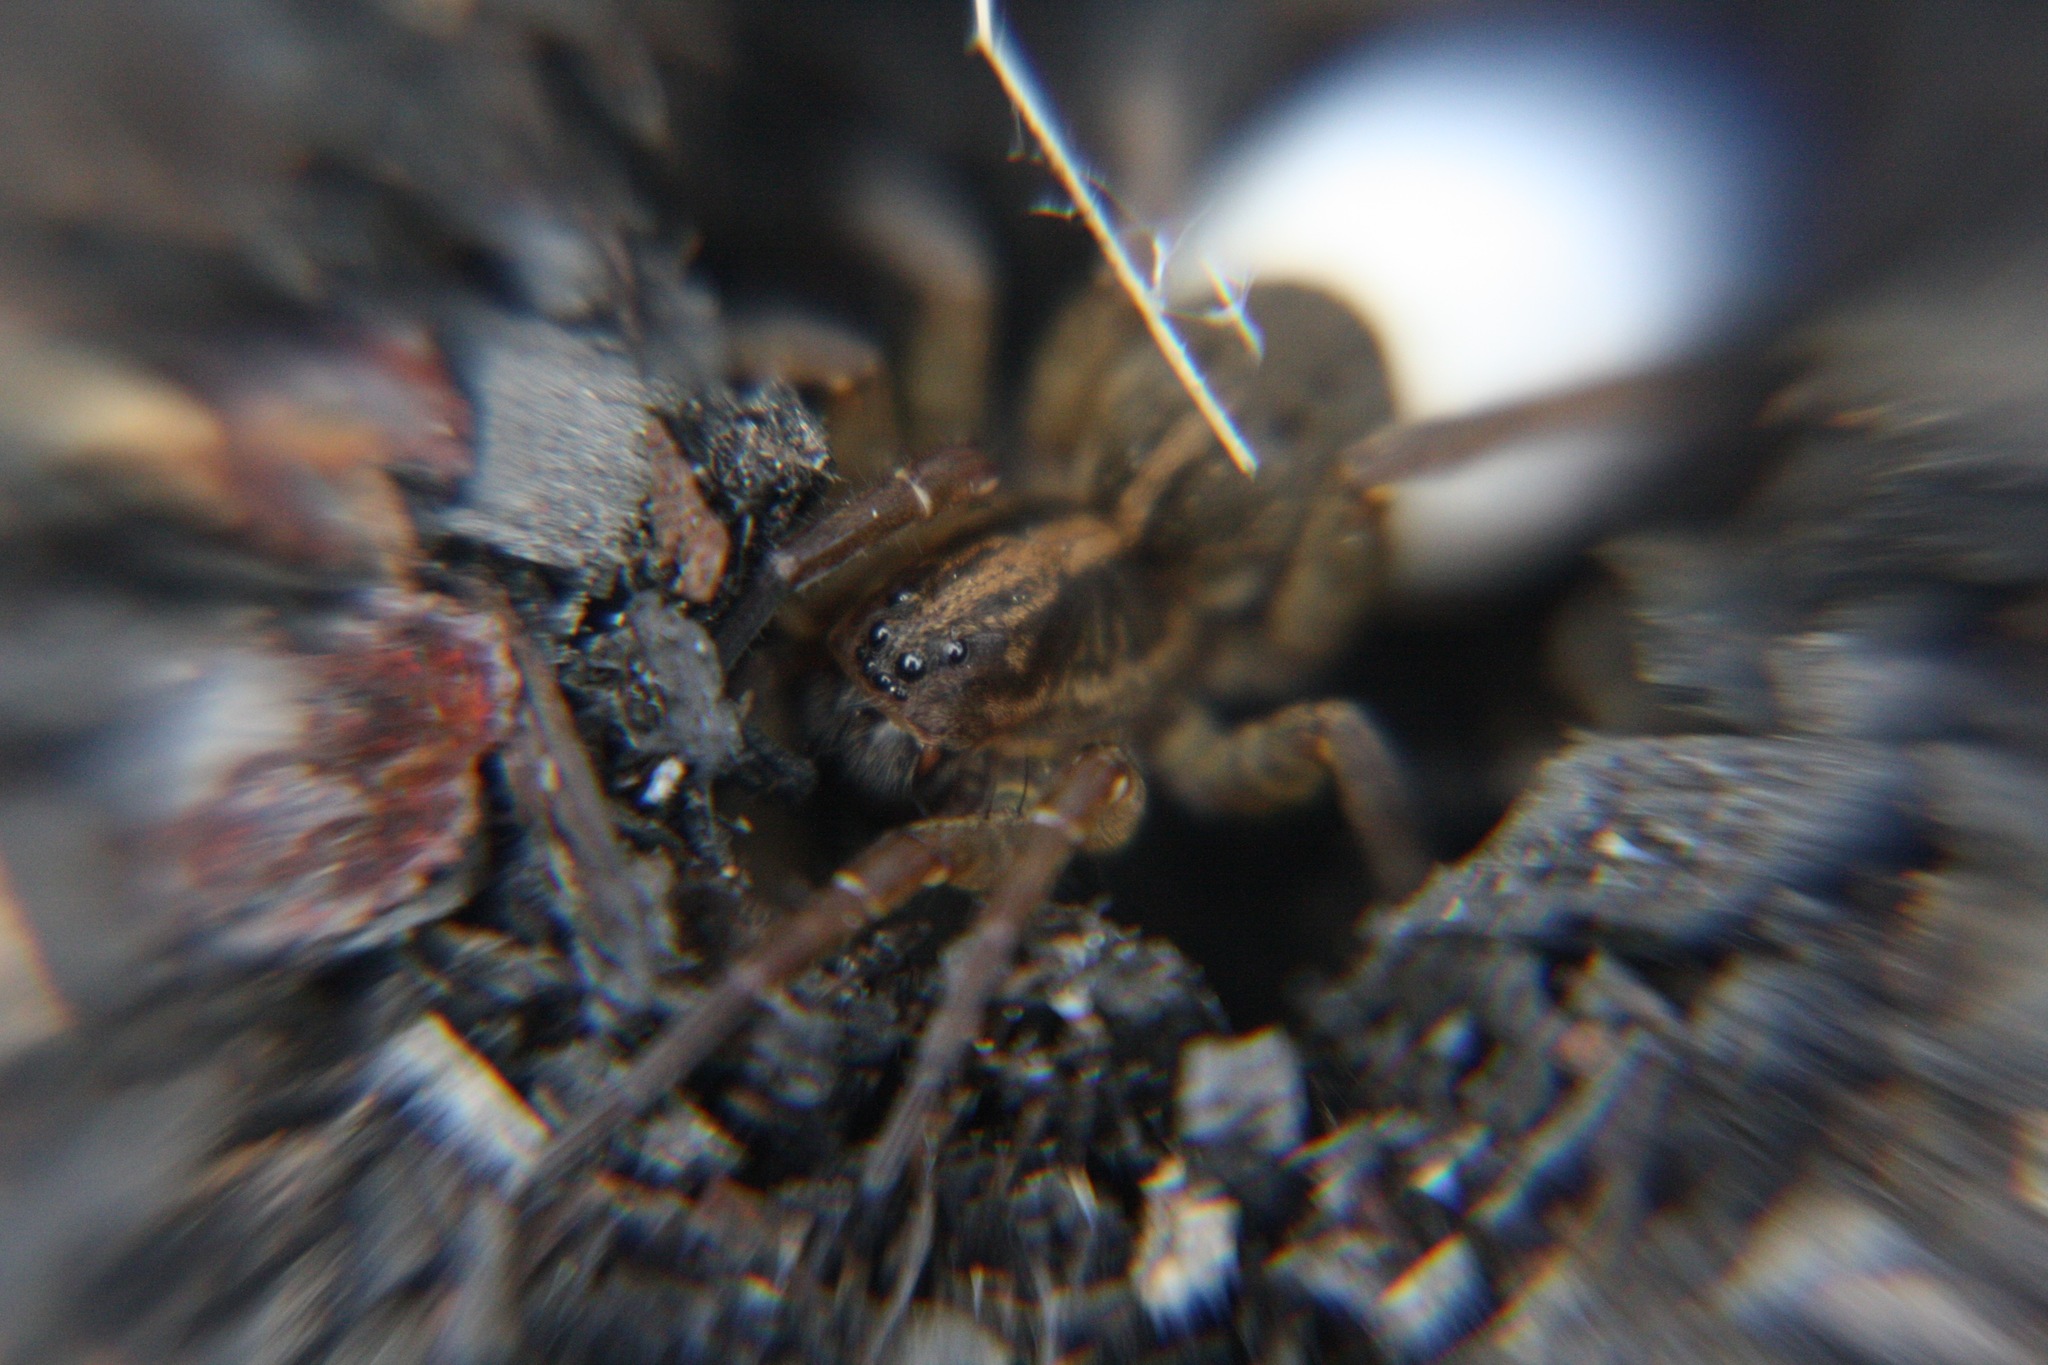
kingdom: Animalia
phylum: Arthropoda
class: Arachnida
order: Araneae
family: Lycosidae
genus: Trochosa
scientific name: Trochosa
